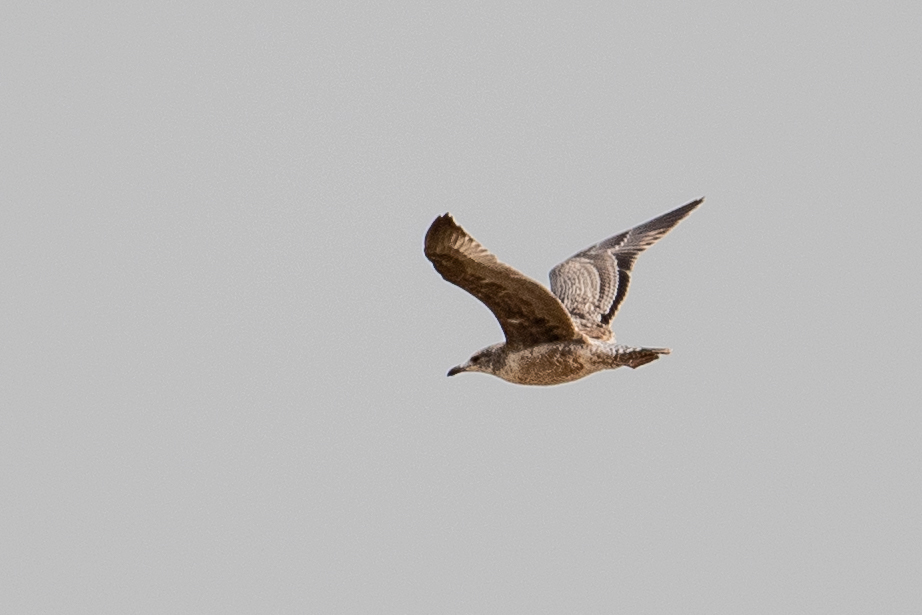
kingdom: Animalia
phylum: Chordata
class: Aves
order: Charadriiformes
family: Laridae
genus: Larus
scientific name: Larus californicus
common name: California gull
